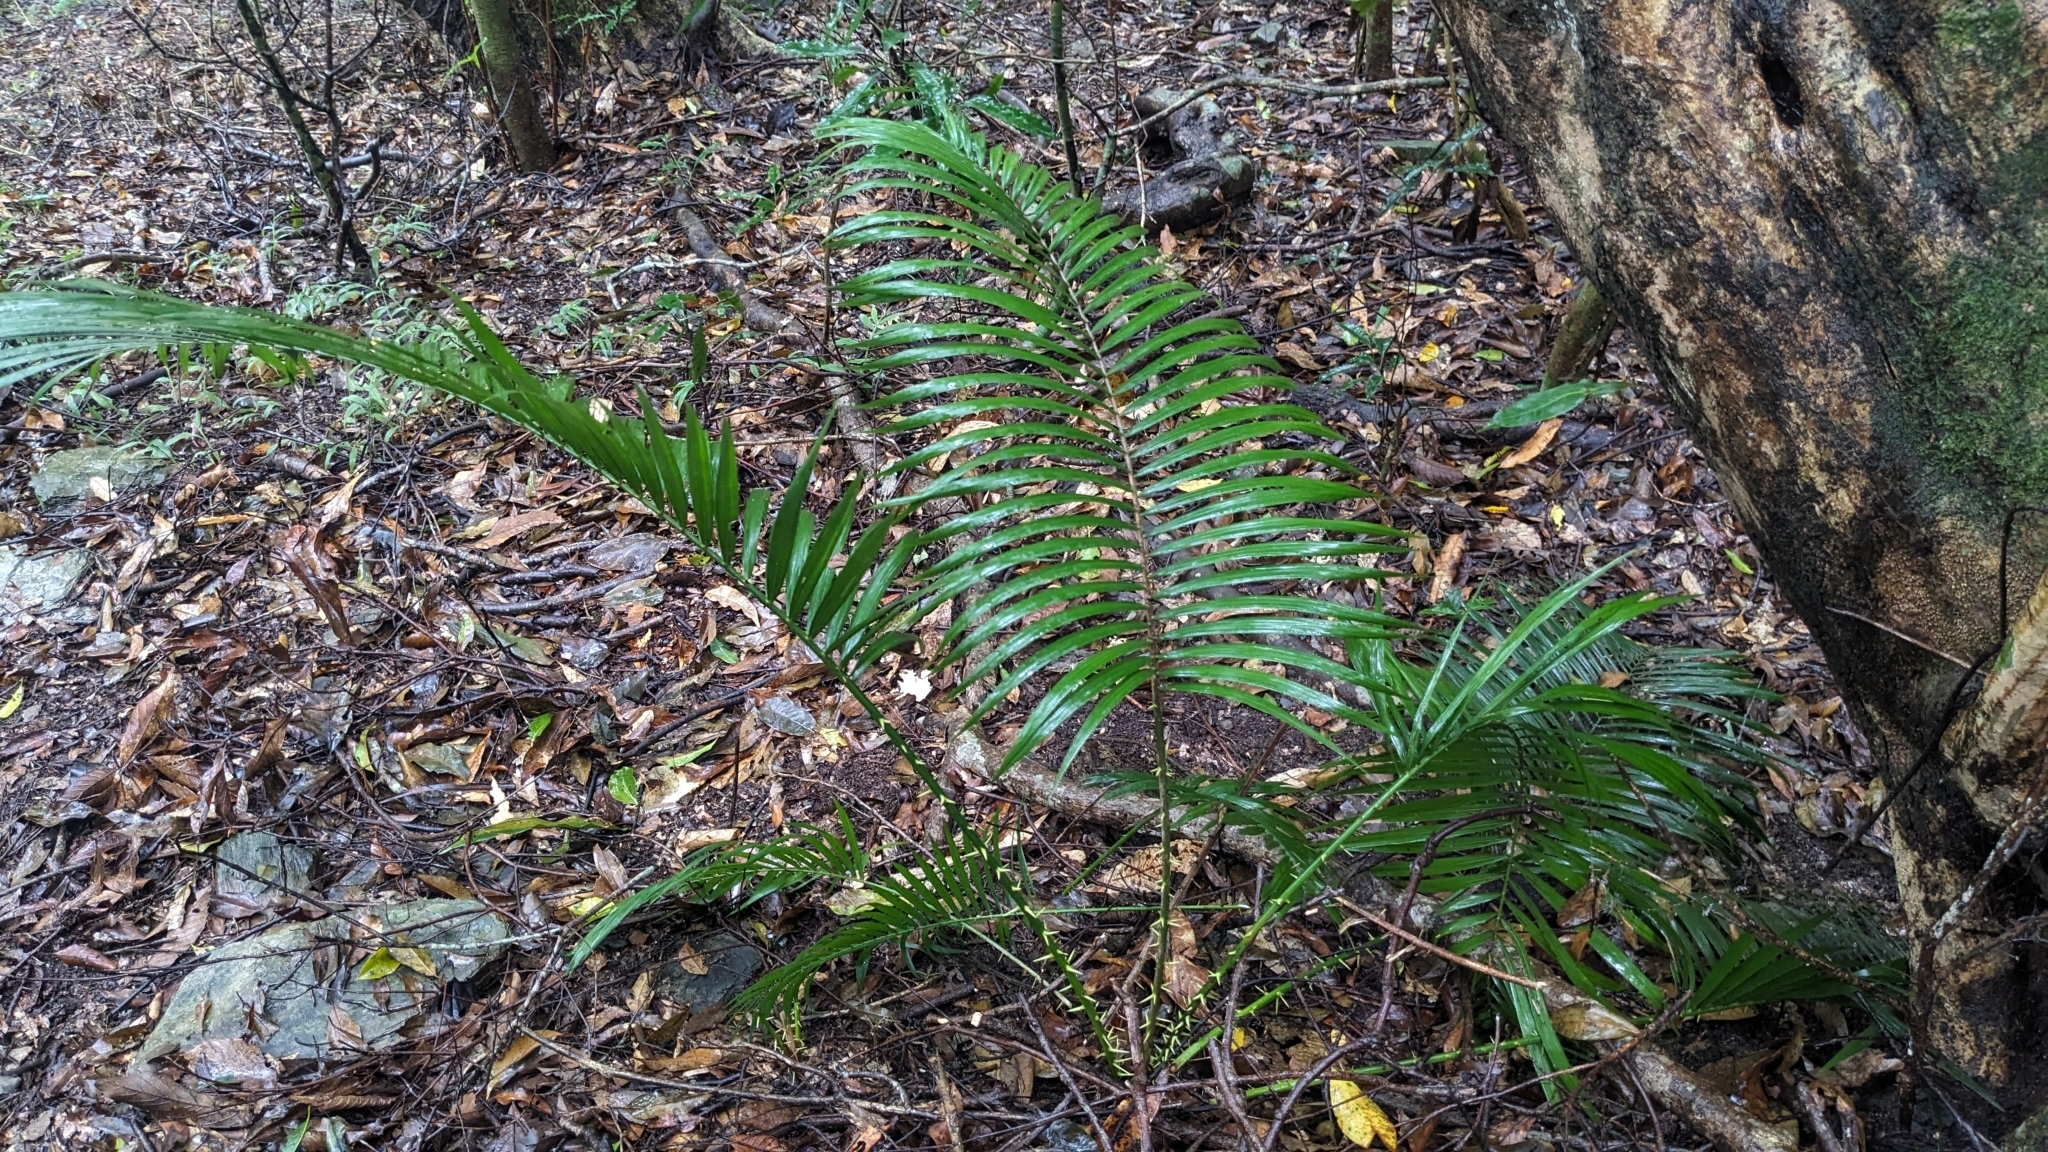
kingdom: Plantae
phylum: Tracheophyta
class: Liliopsida
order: Arecales
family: Arecaceae
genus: Calamus
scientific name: Calamus beccarii
